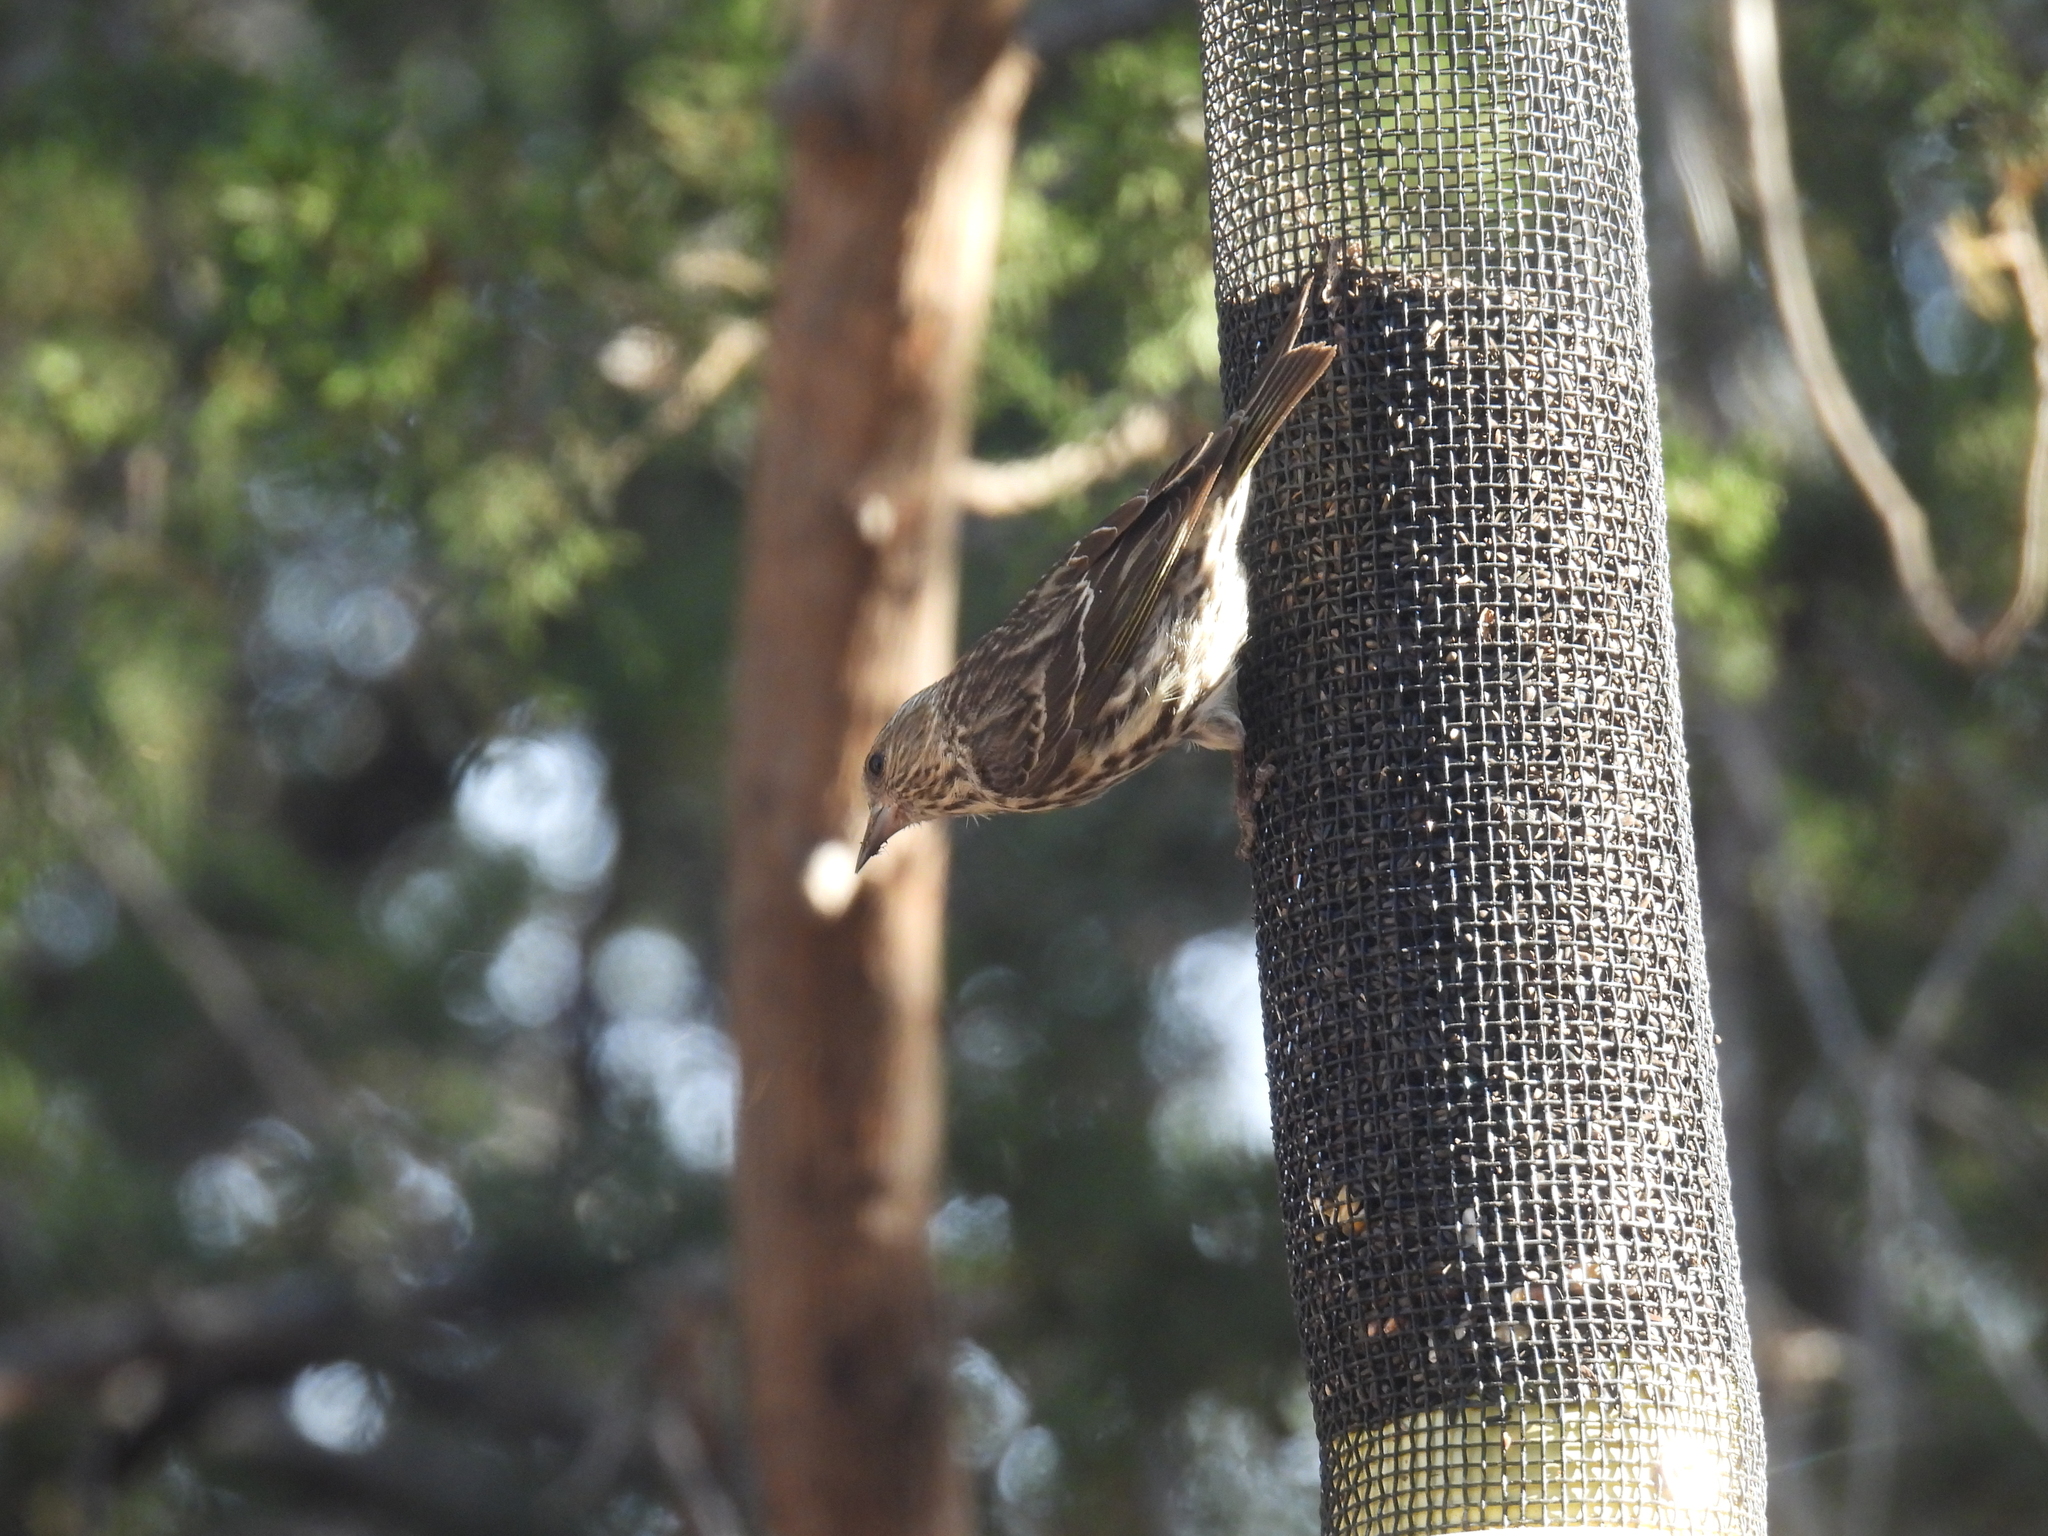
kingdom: Animalia
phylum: Chordata
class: Aves
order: Passeriformes
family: Fringillidae
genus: Spinus
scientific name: Spinus pinus
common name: Pine siskin
